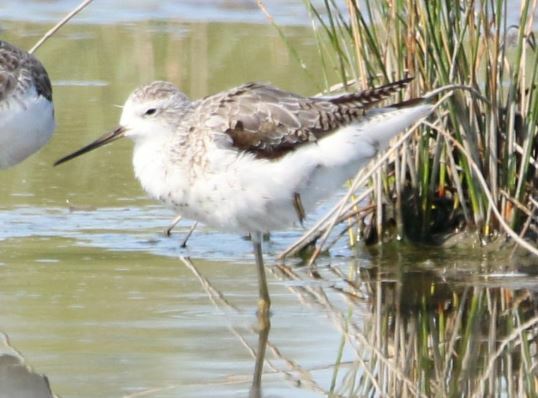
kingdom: Animalia
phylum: Chordata
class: Aves
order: Charadriiformes
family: Scolopacidae
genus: Tringa
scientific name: Tringa stagnatilis
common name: Marsh sandpiper
